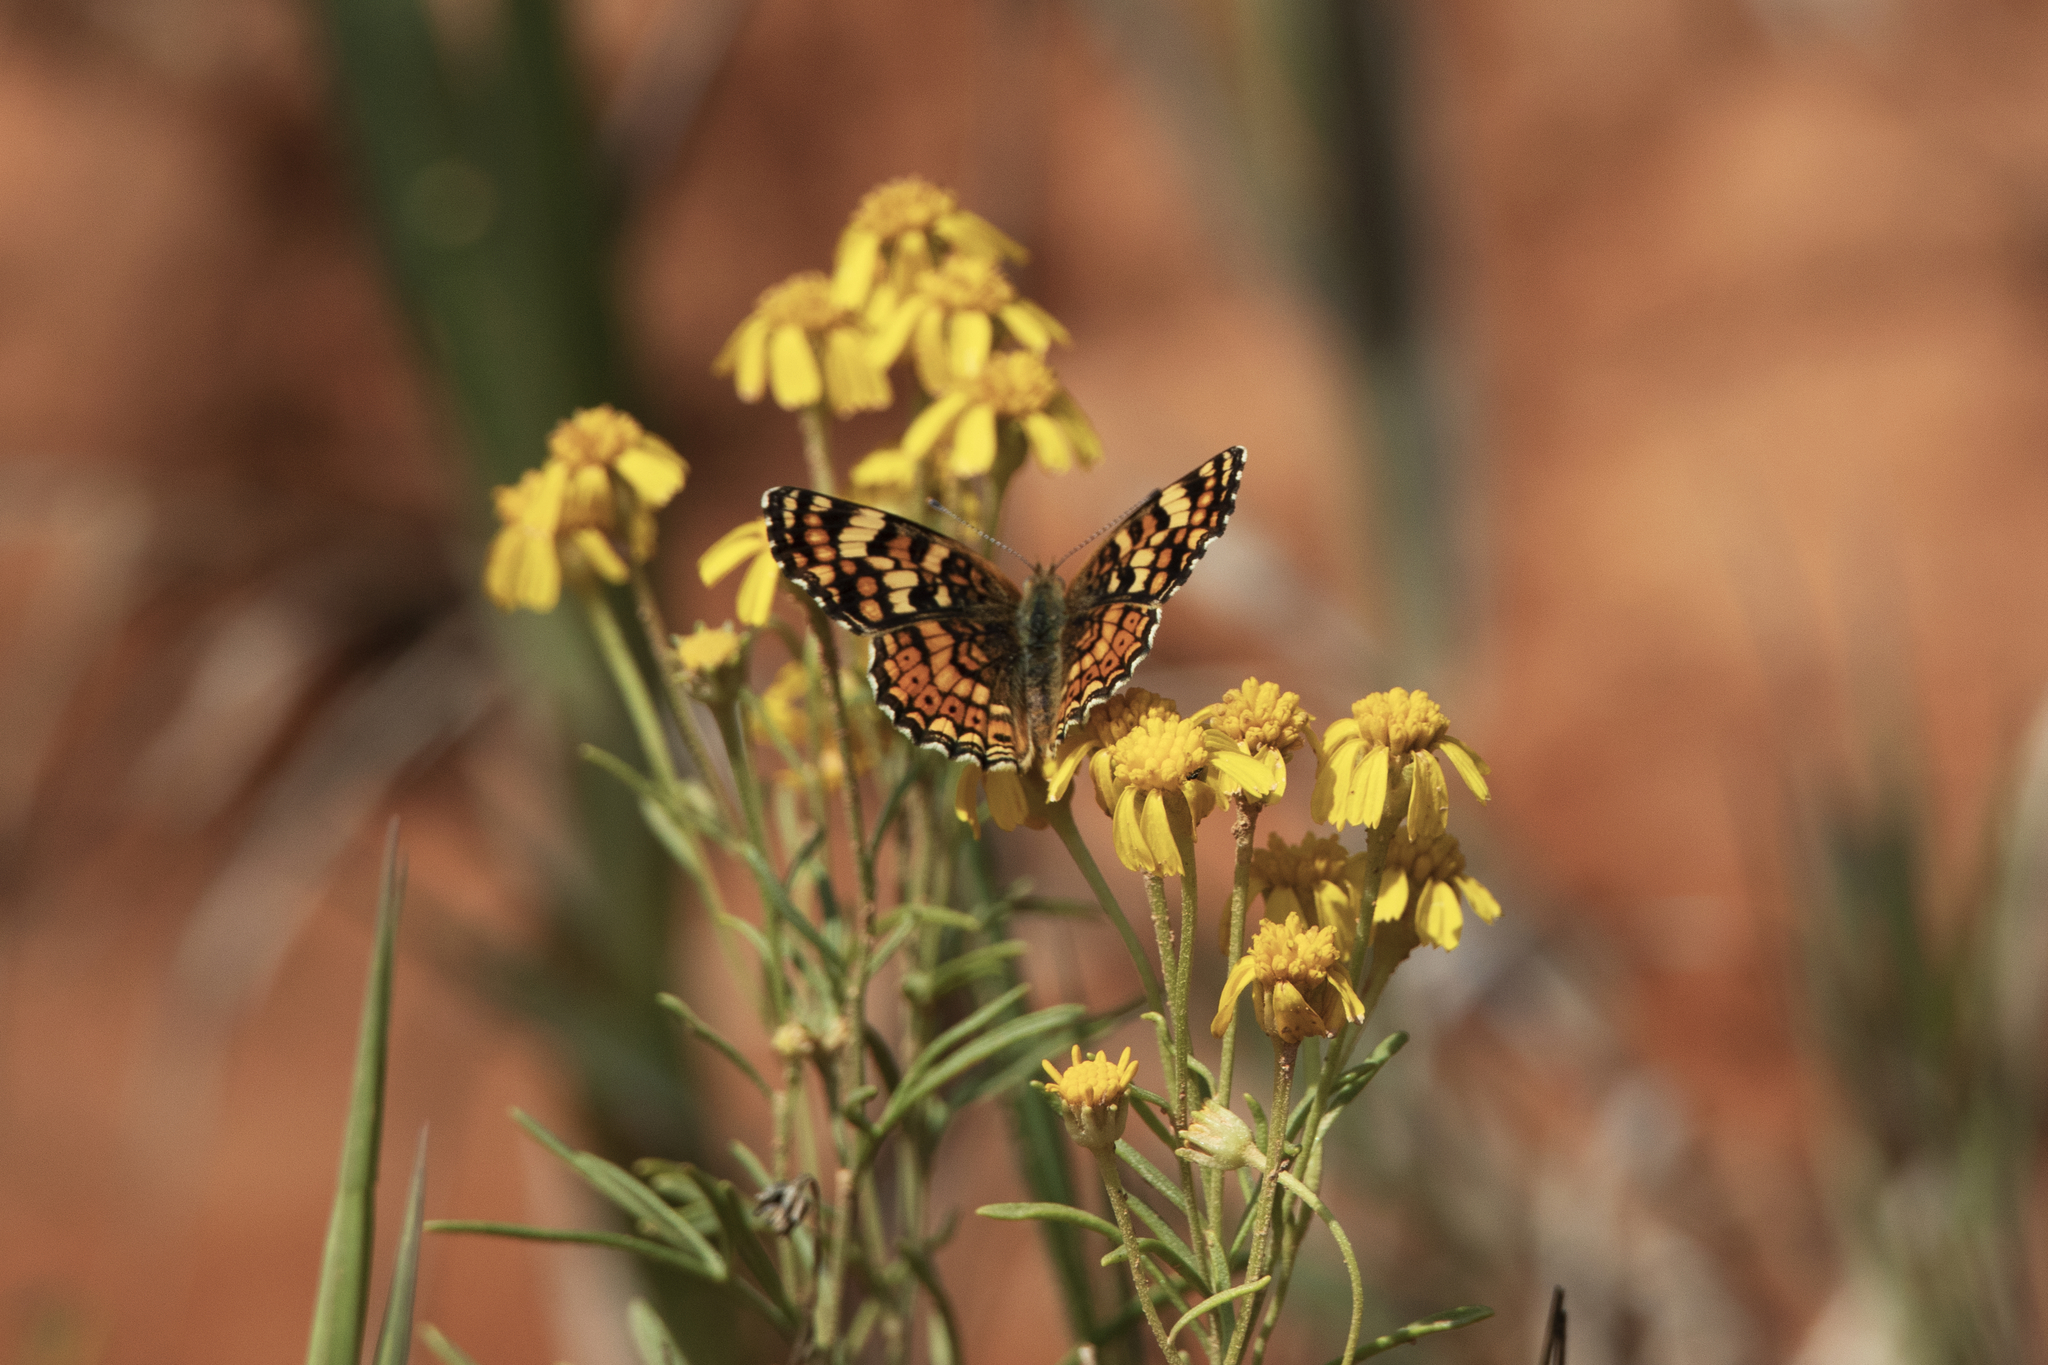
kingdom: Animalia
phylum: Arthropoda
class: Insecta
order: Lepidoptera
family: Nymphalidae
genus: Phyciodes
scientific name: Phyciodes tharos
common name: Pearl crescent
